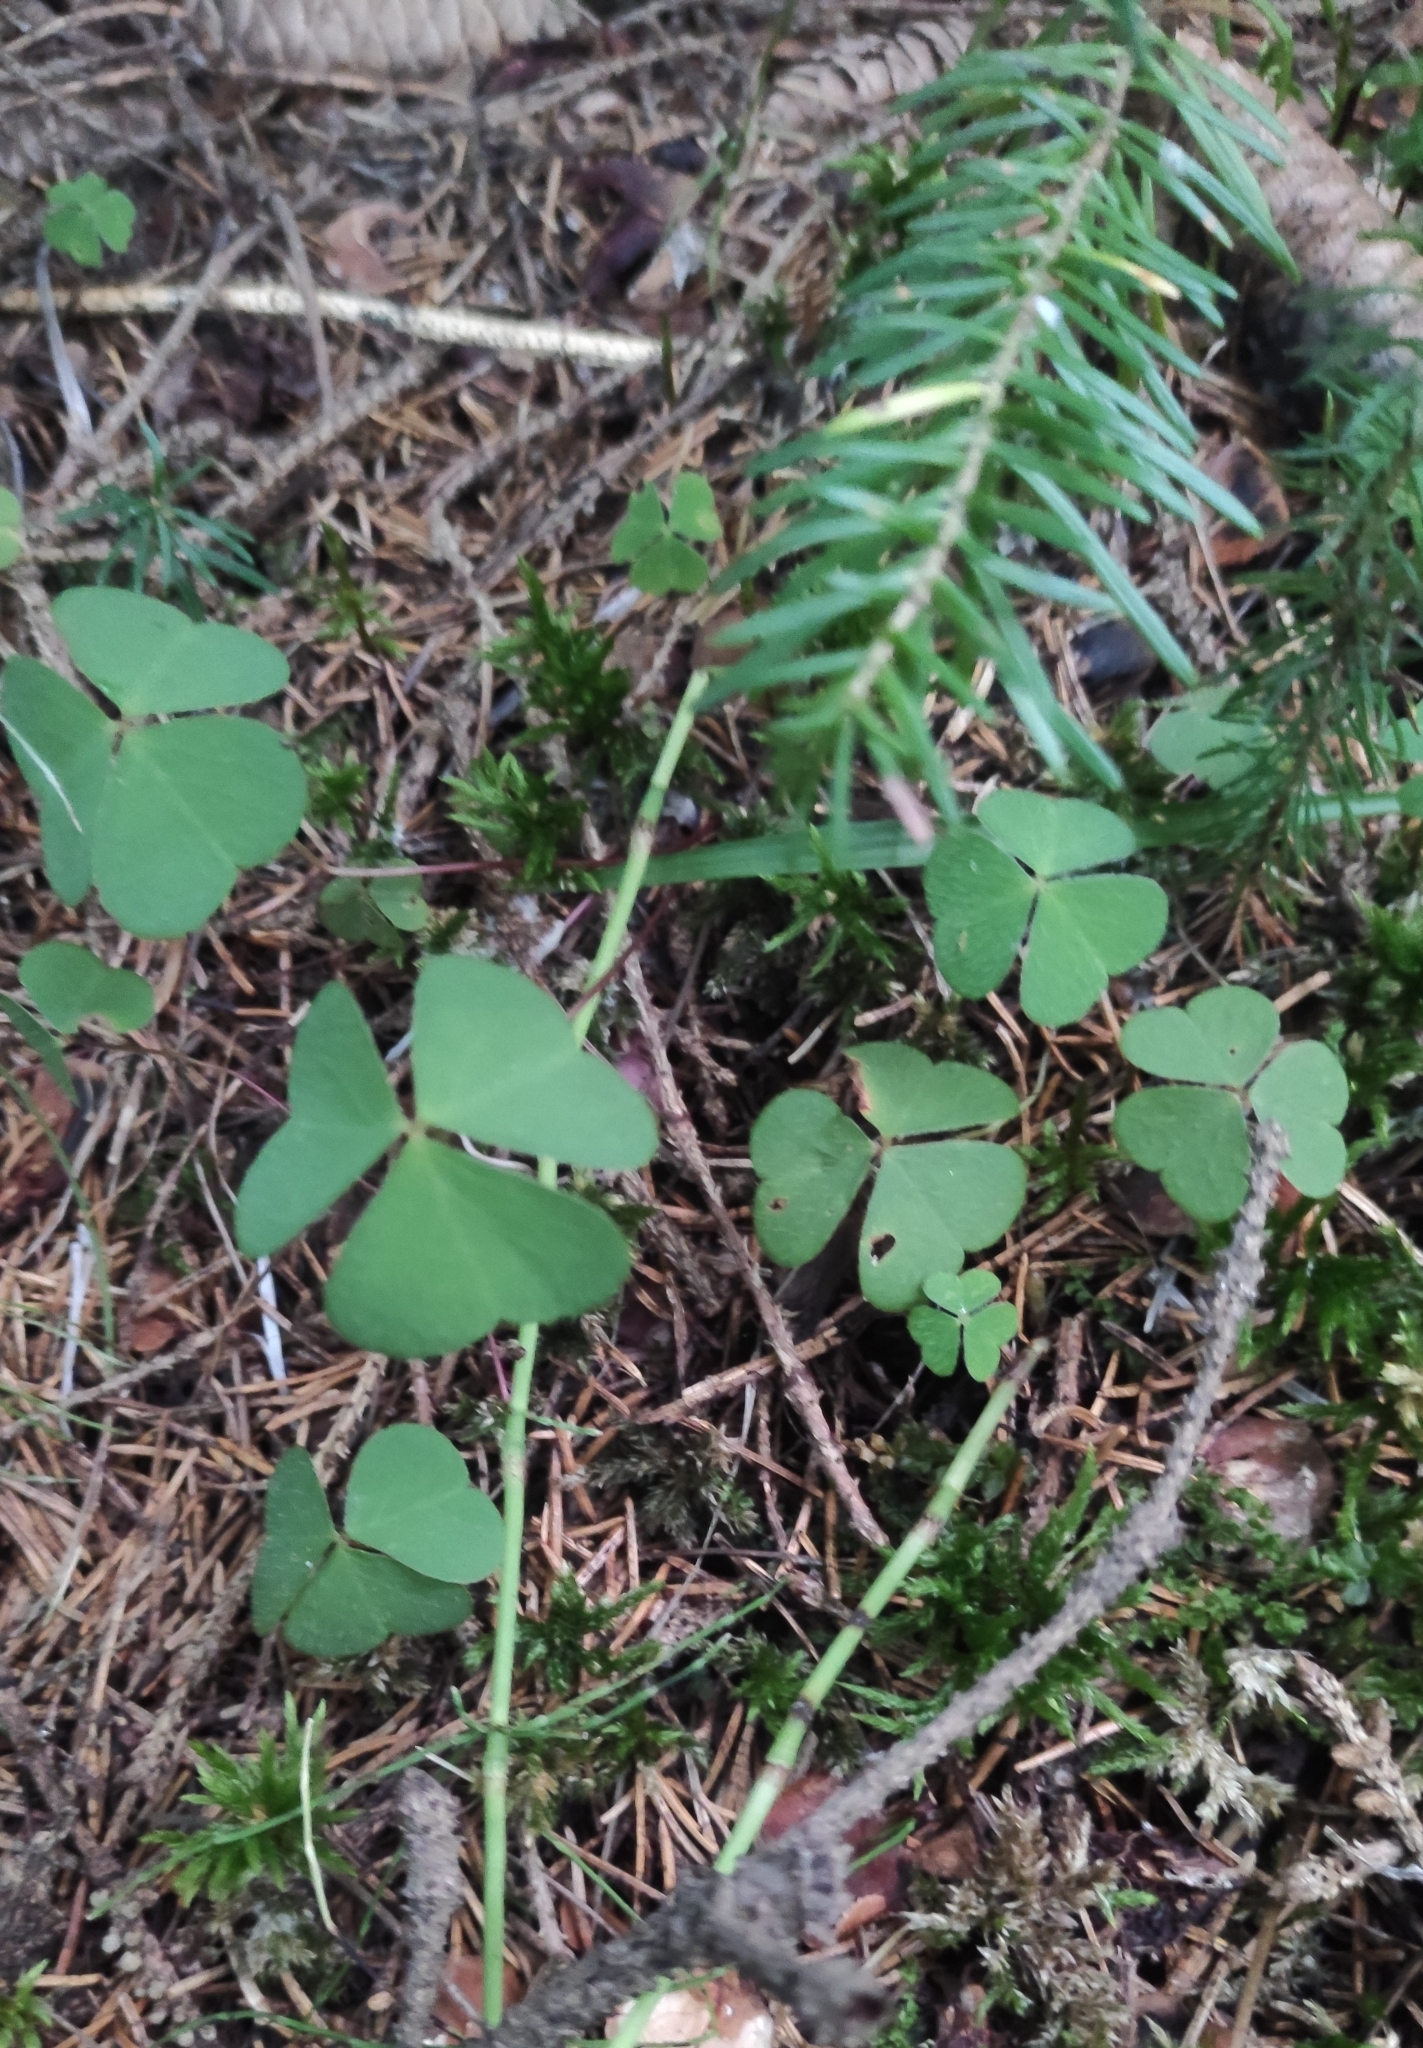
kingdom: Plantae
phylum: Tracheophyta
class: Magnoliopsida
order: Oxalidales
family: Oxalidaceae
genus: Oxalis
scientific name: Oxalis acetosella
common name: Wood-sorrel
